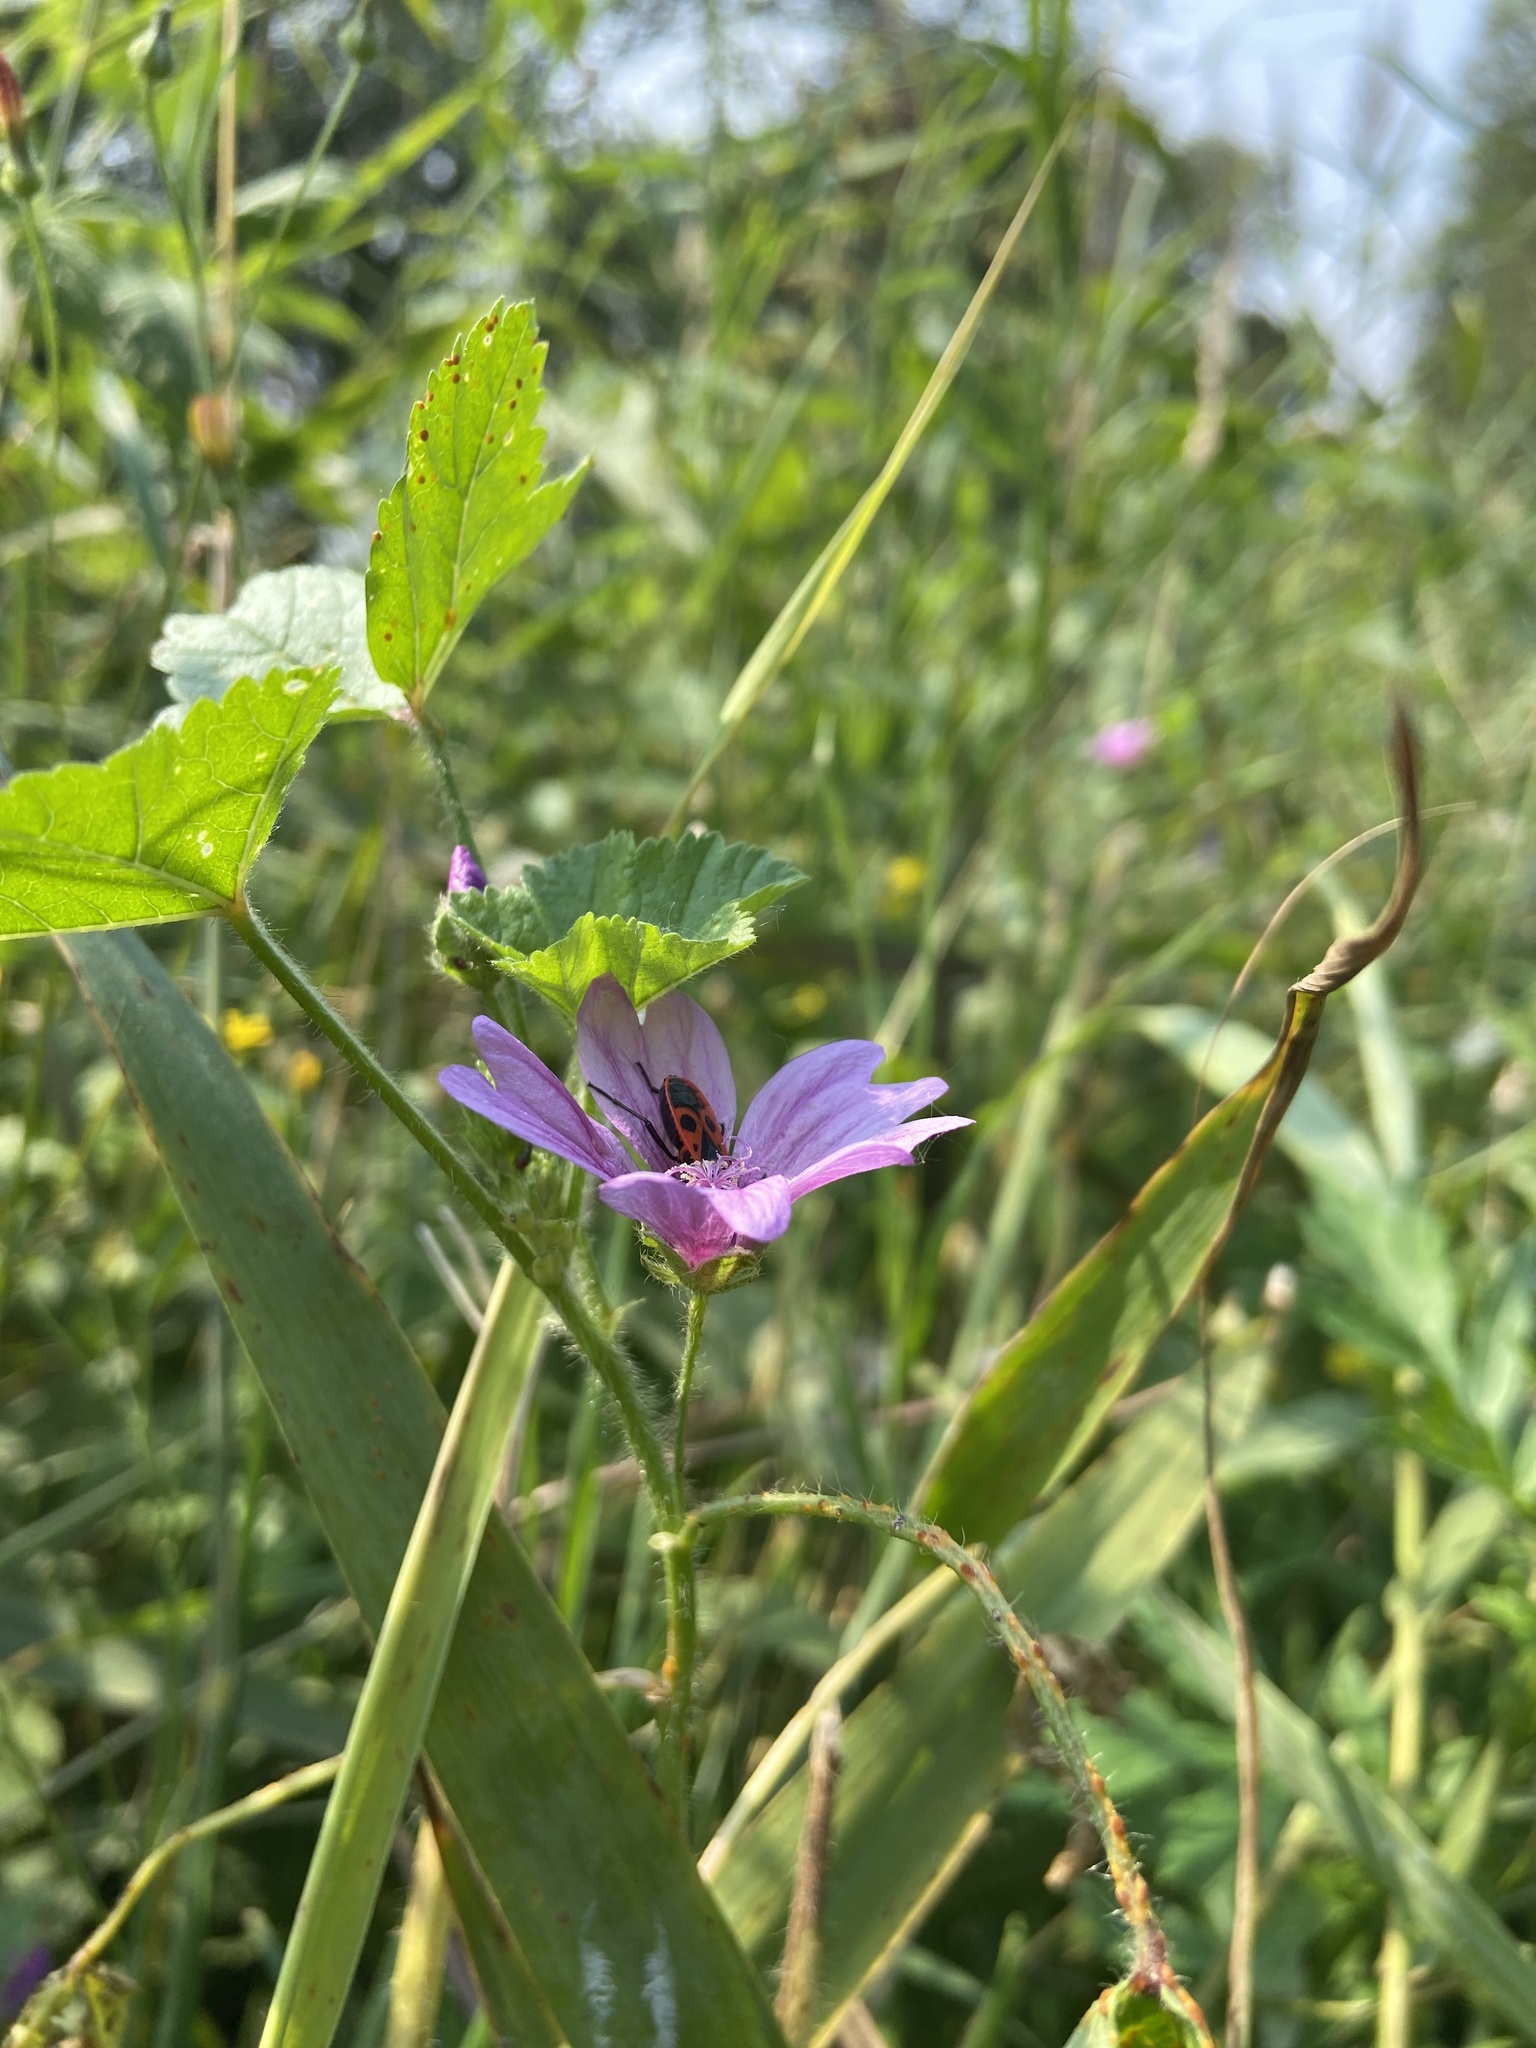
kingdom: Plantae
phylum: Tracheophyta
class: Magnoliopsida
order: Malvales
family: Malvaceae
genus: Malva
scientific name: Malva sylvestris
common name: Common mallow
